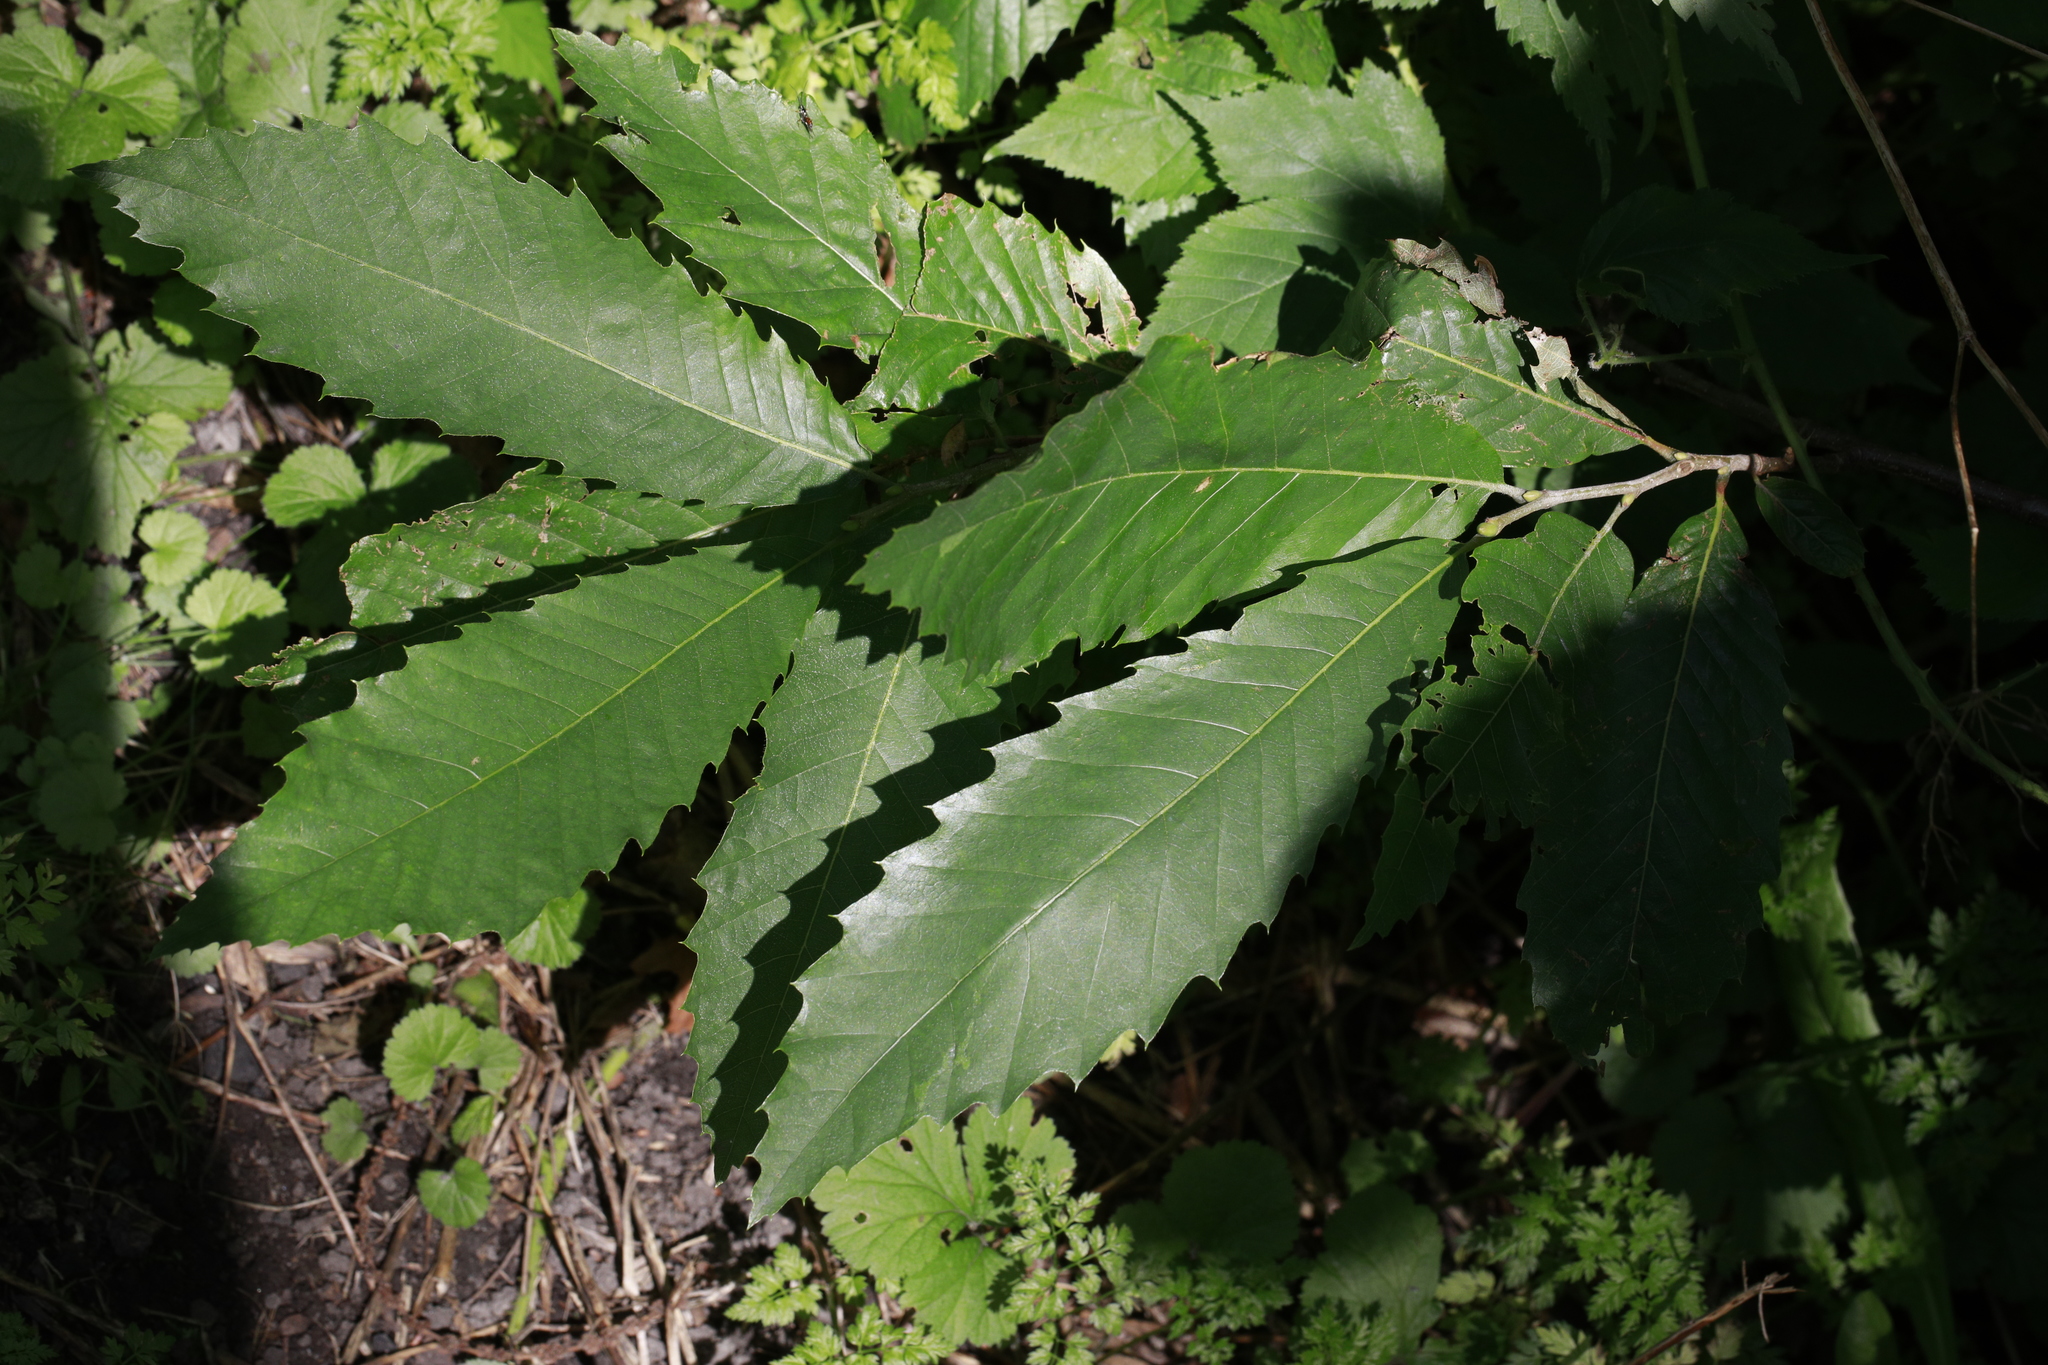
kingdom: Plantae
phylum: Tracheophyta
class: Magnoliopsida
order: Fagales
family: Fagaceae
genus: Castanea
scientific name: Castanea sativa
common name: Sweet chestnut
